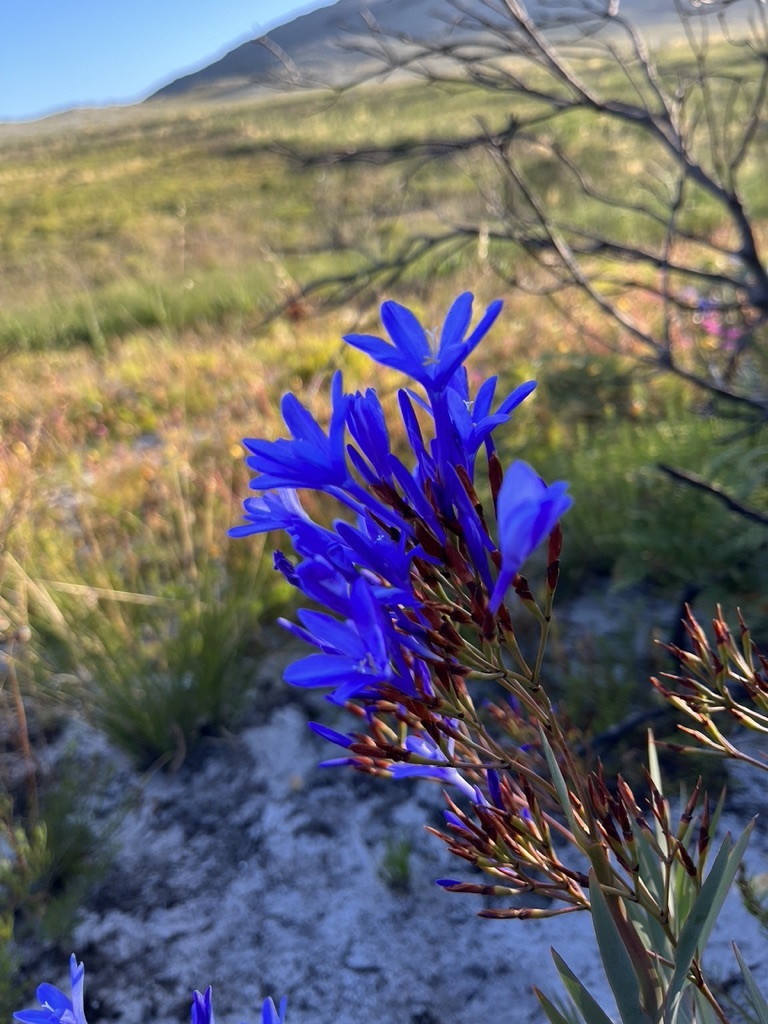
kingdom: Plantae
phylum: Tracheophyta
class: Liliopsida
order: Asparagales
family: Iridaceae
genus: Nivenia
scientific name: Nivenia stokoei
